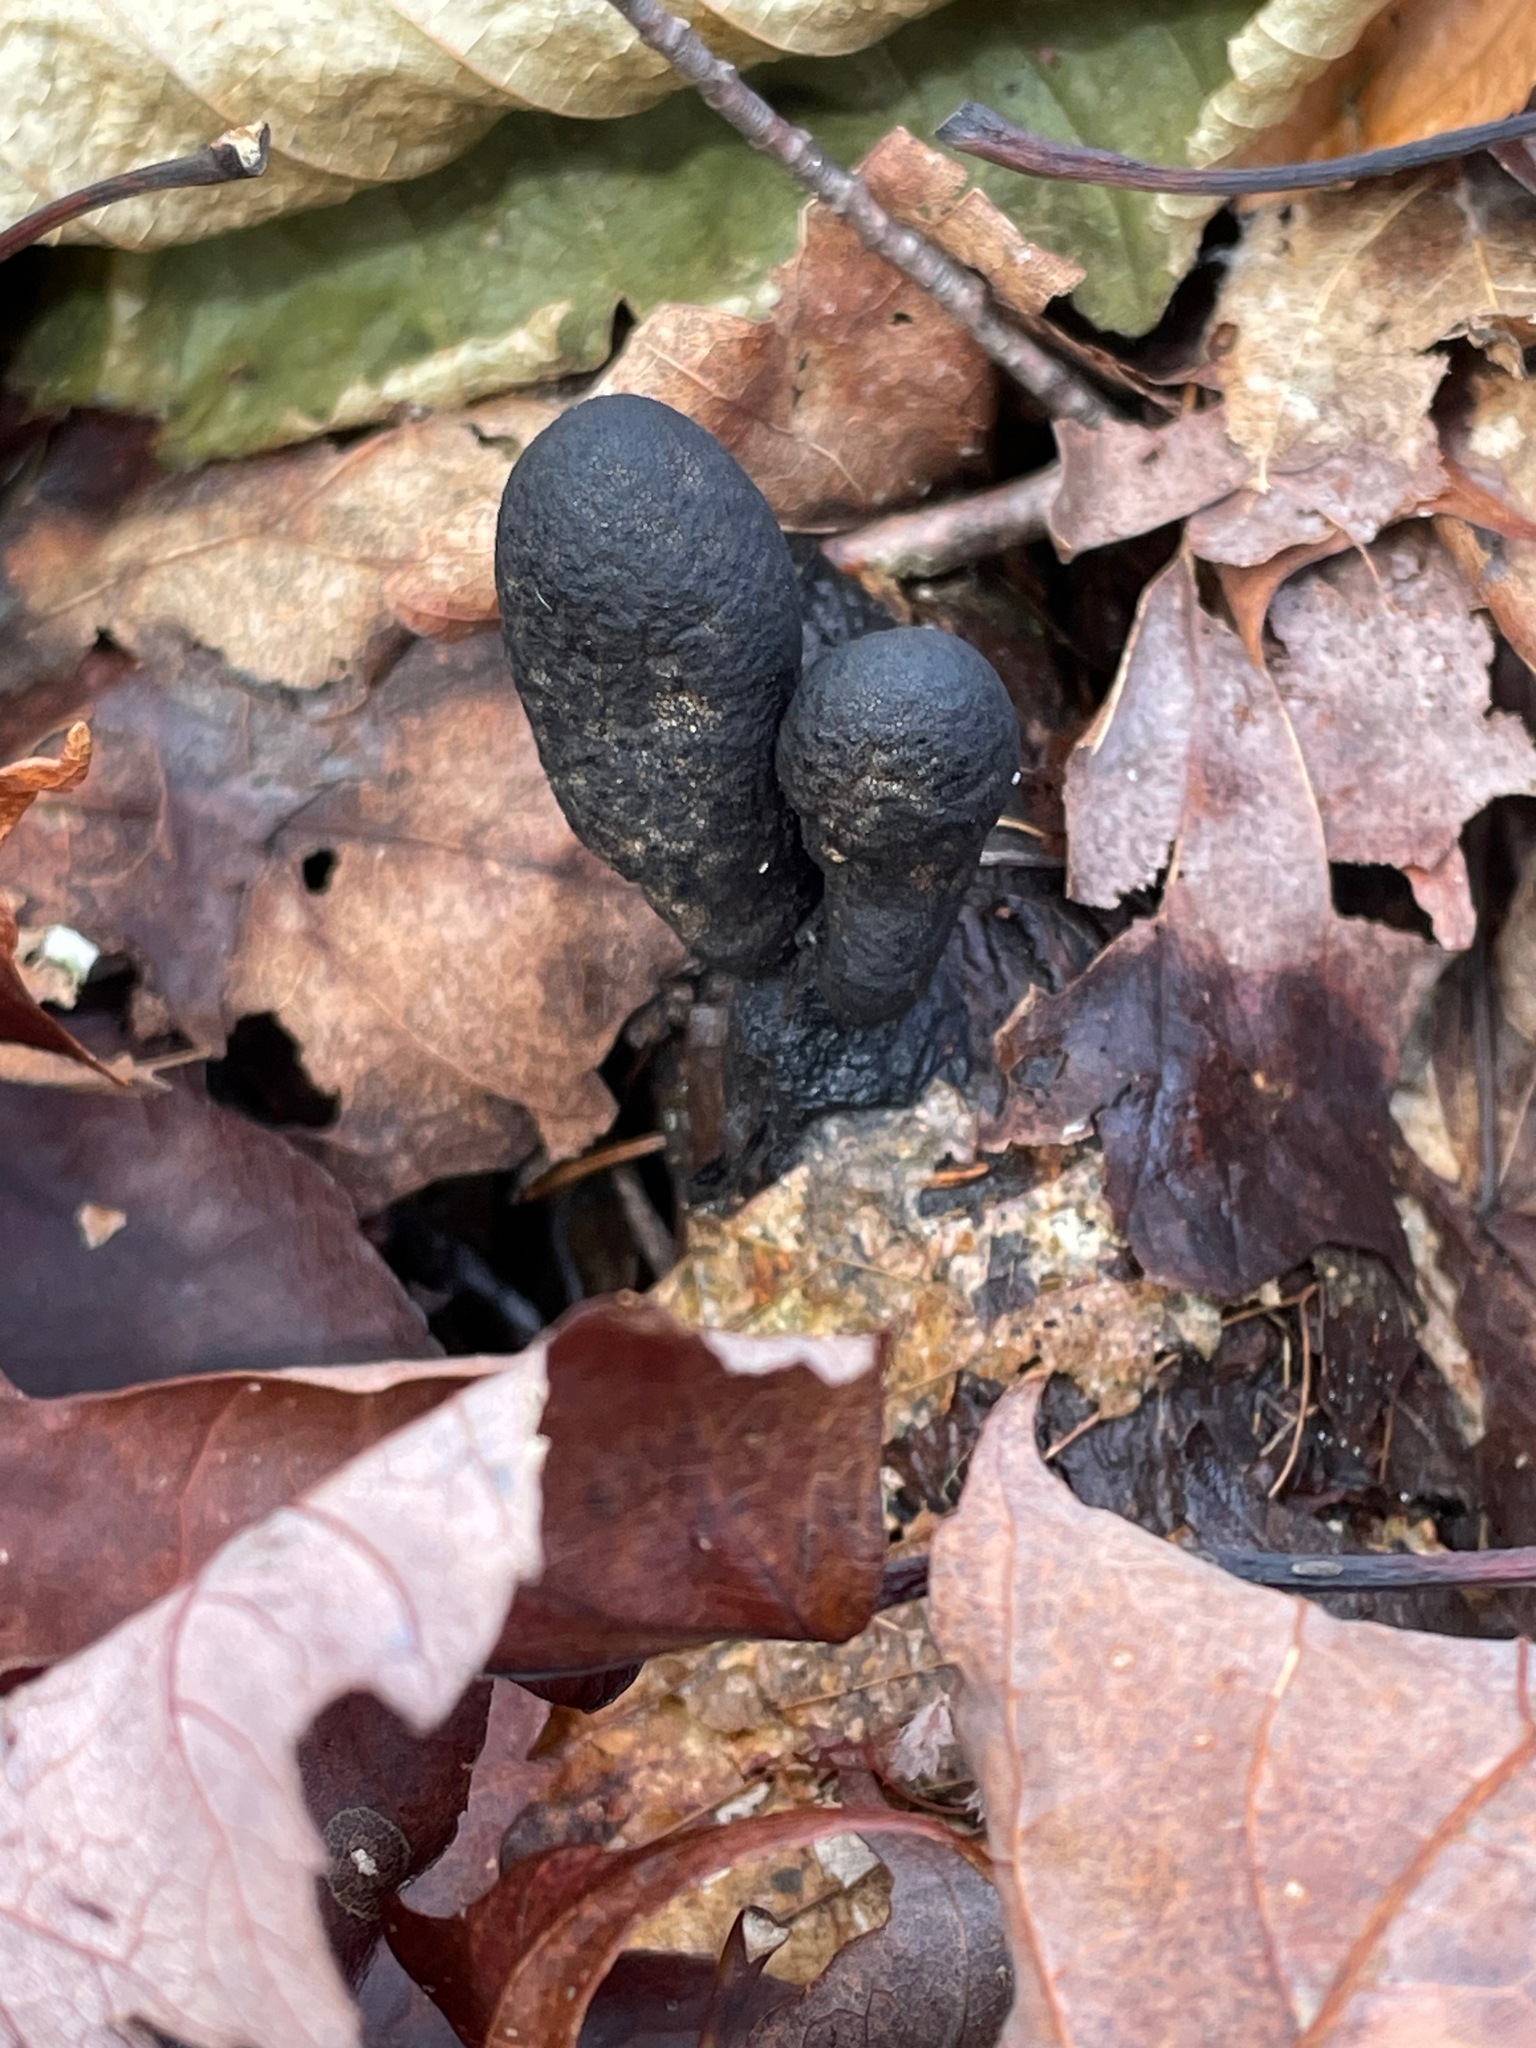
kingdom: Fungi
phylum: Ascomycota
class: Sordariomycetes
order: Xylariales
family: Xylariaceae
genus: Xylaria
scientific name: Xylaria polymorpha
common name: Dead man's fingers
